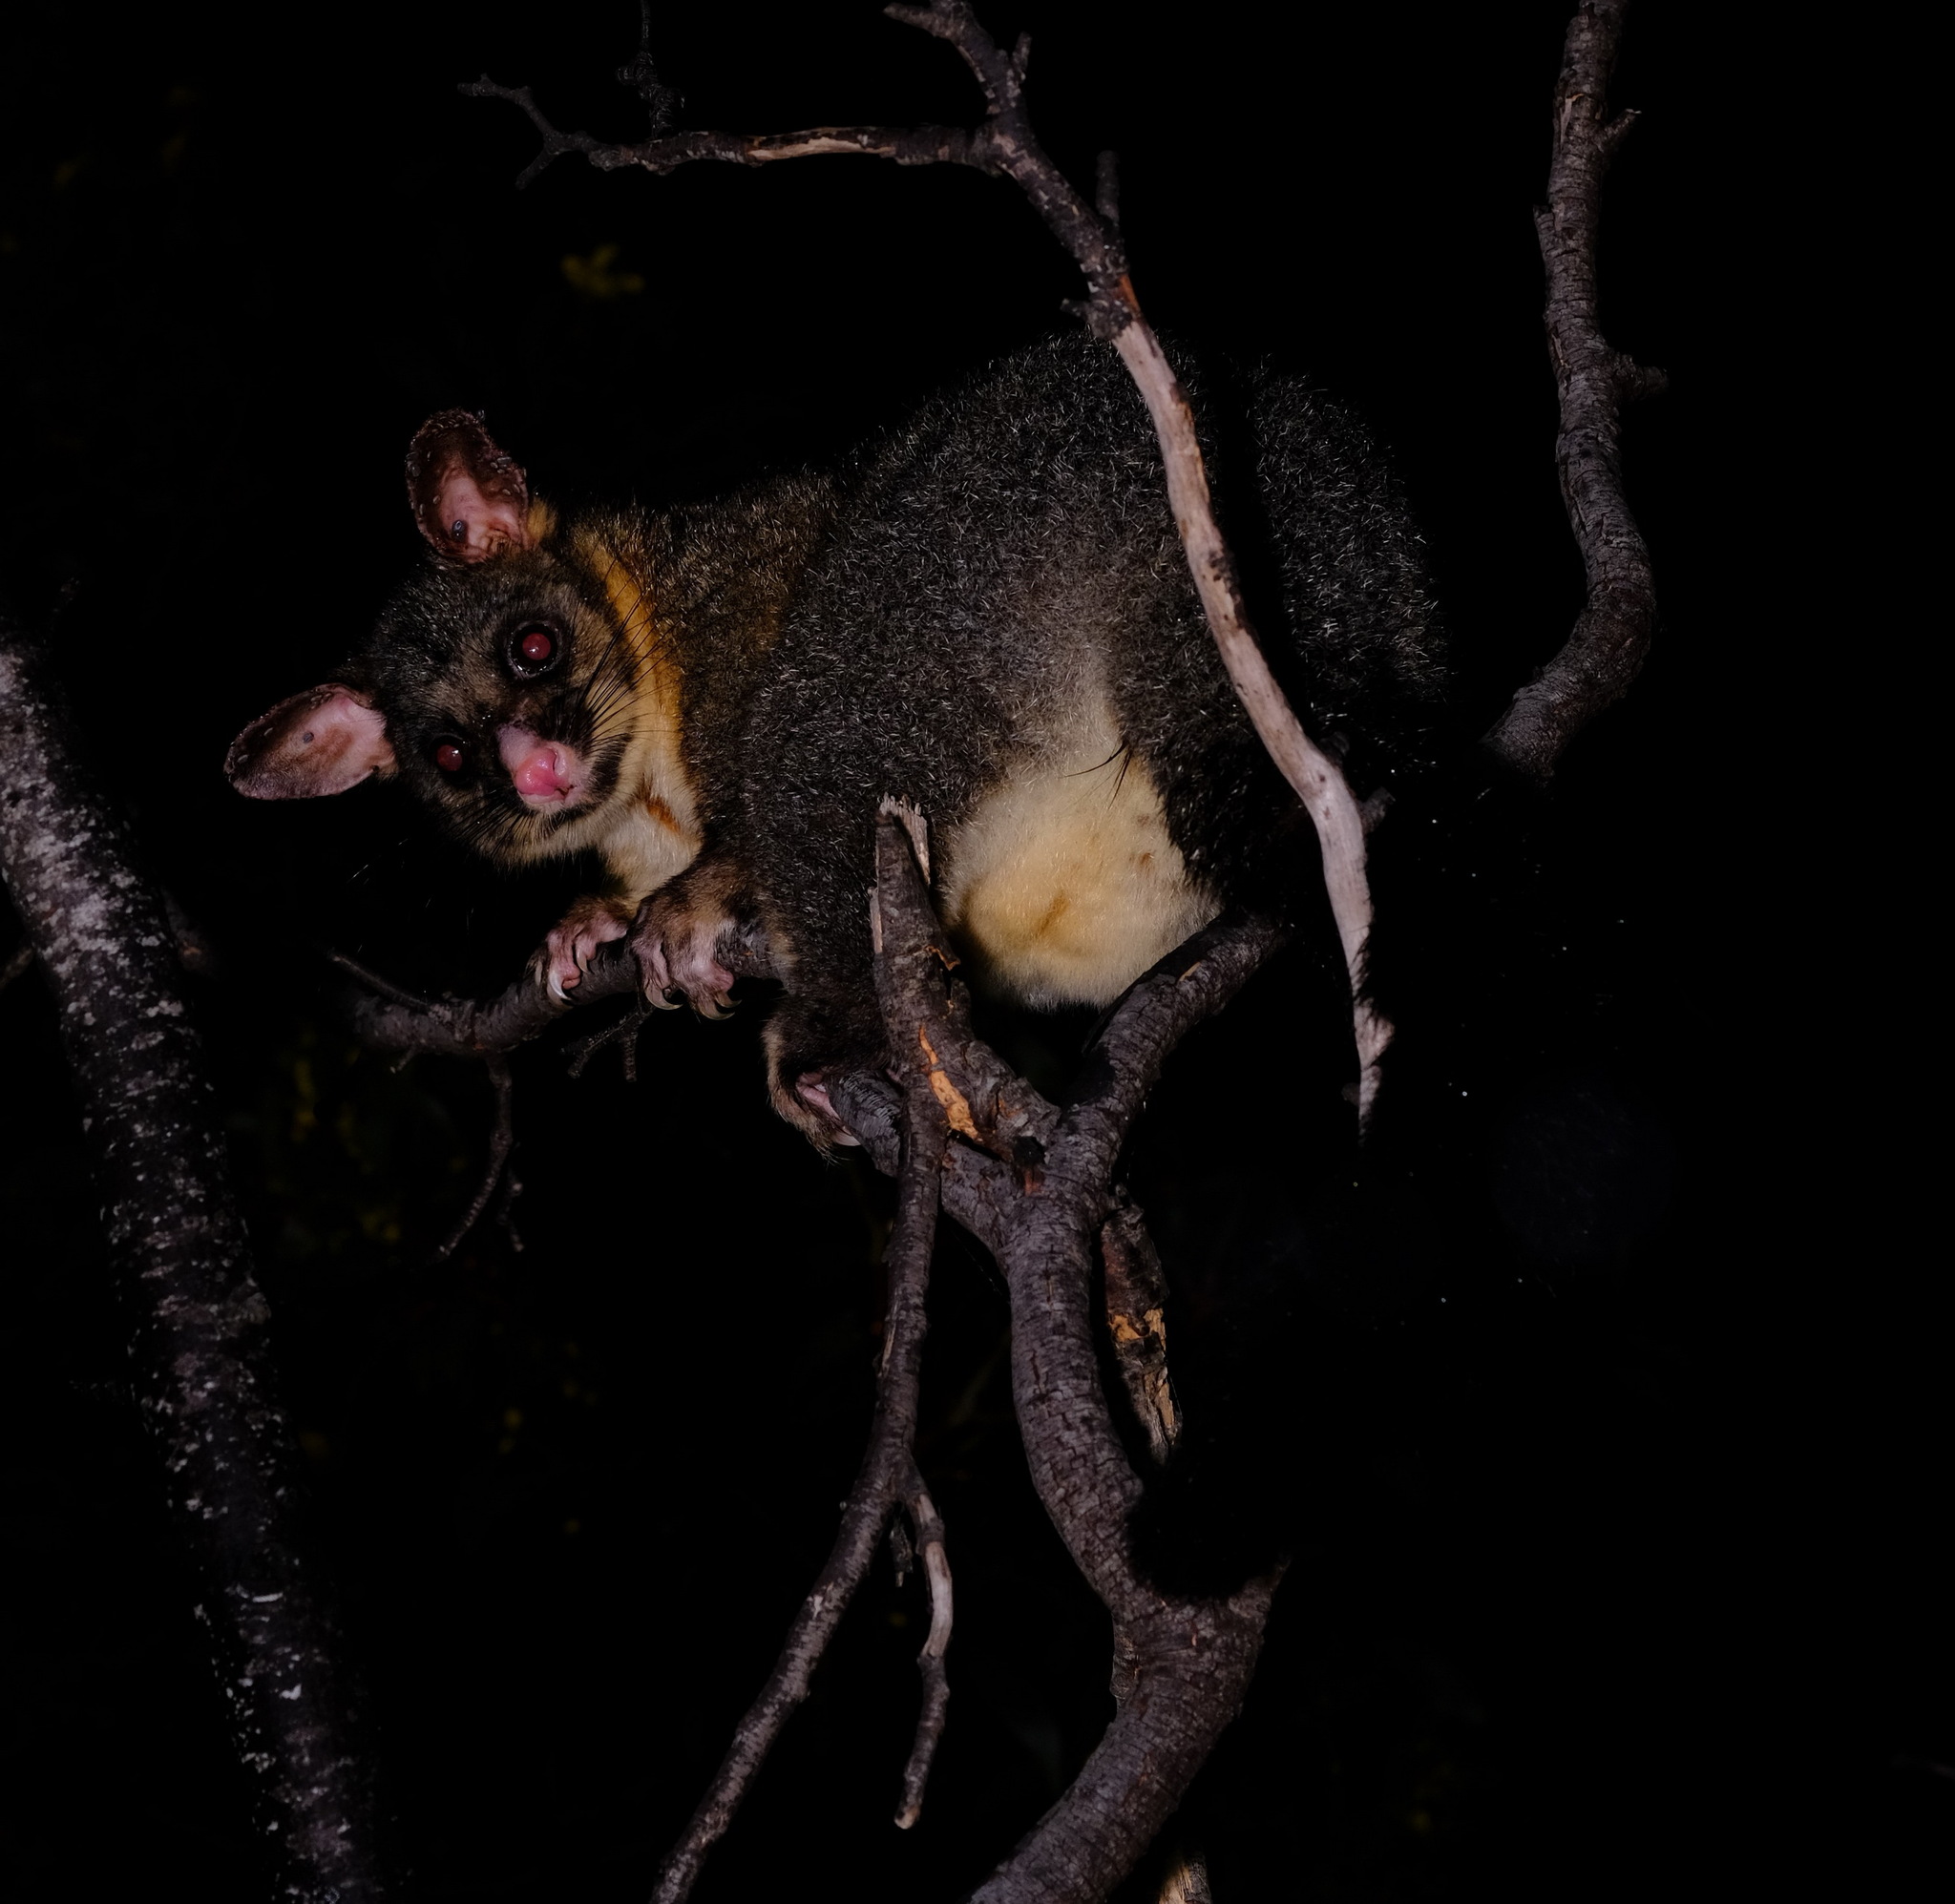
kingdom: Animalia
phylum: Chordata
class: Mammalia
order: Diprotodontia
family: Phalangeridae
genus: Trichosurus
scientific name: Trichosurus vulpecula
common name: Common brushtail
